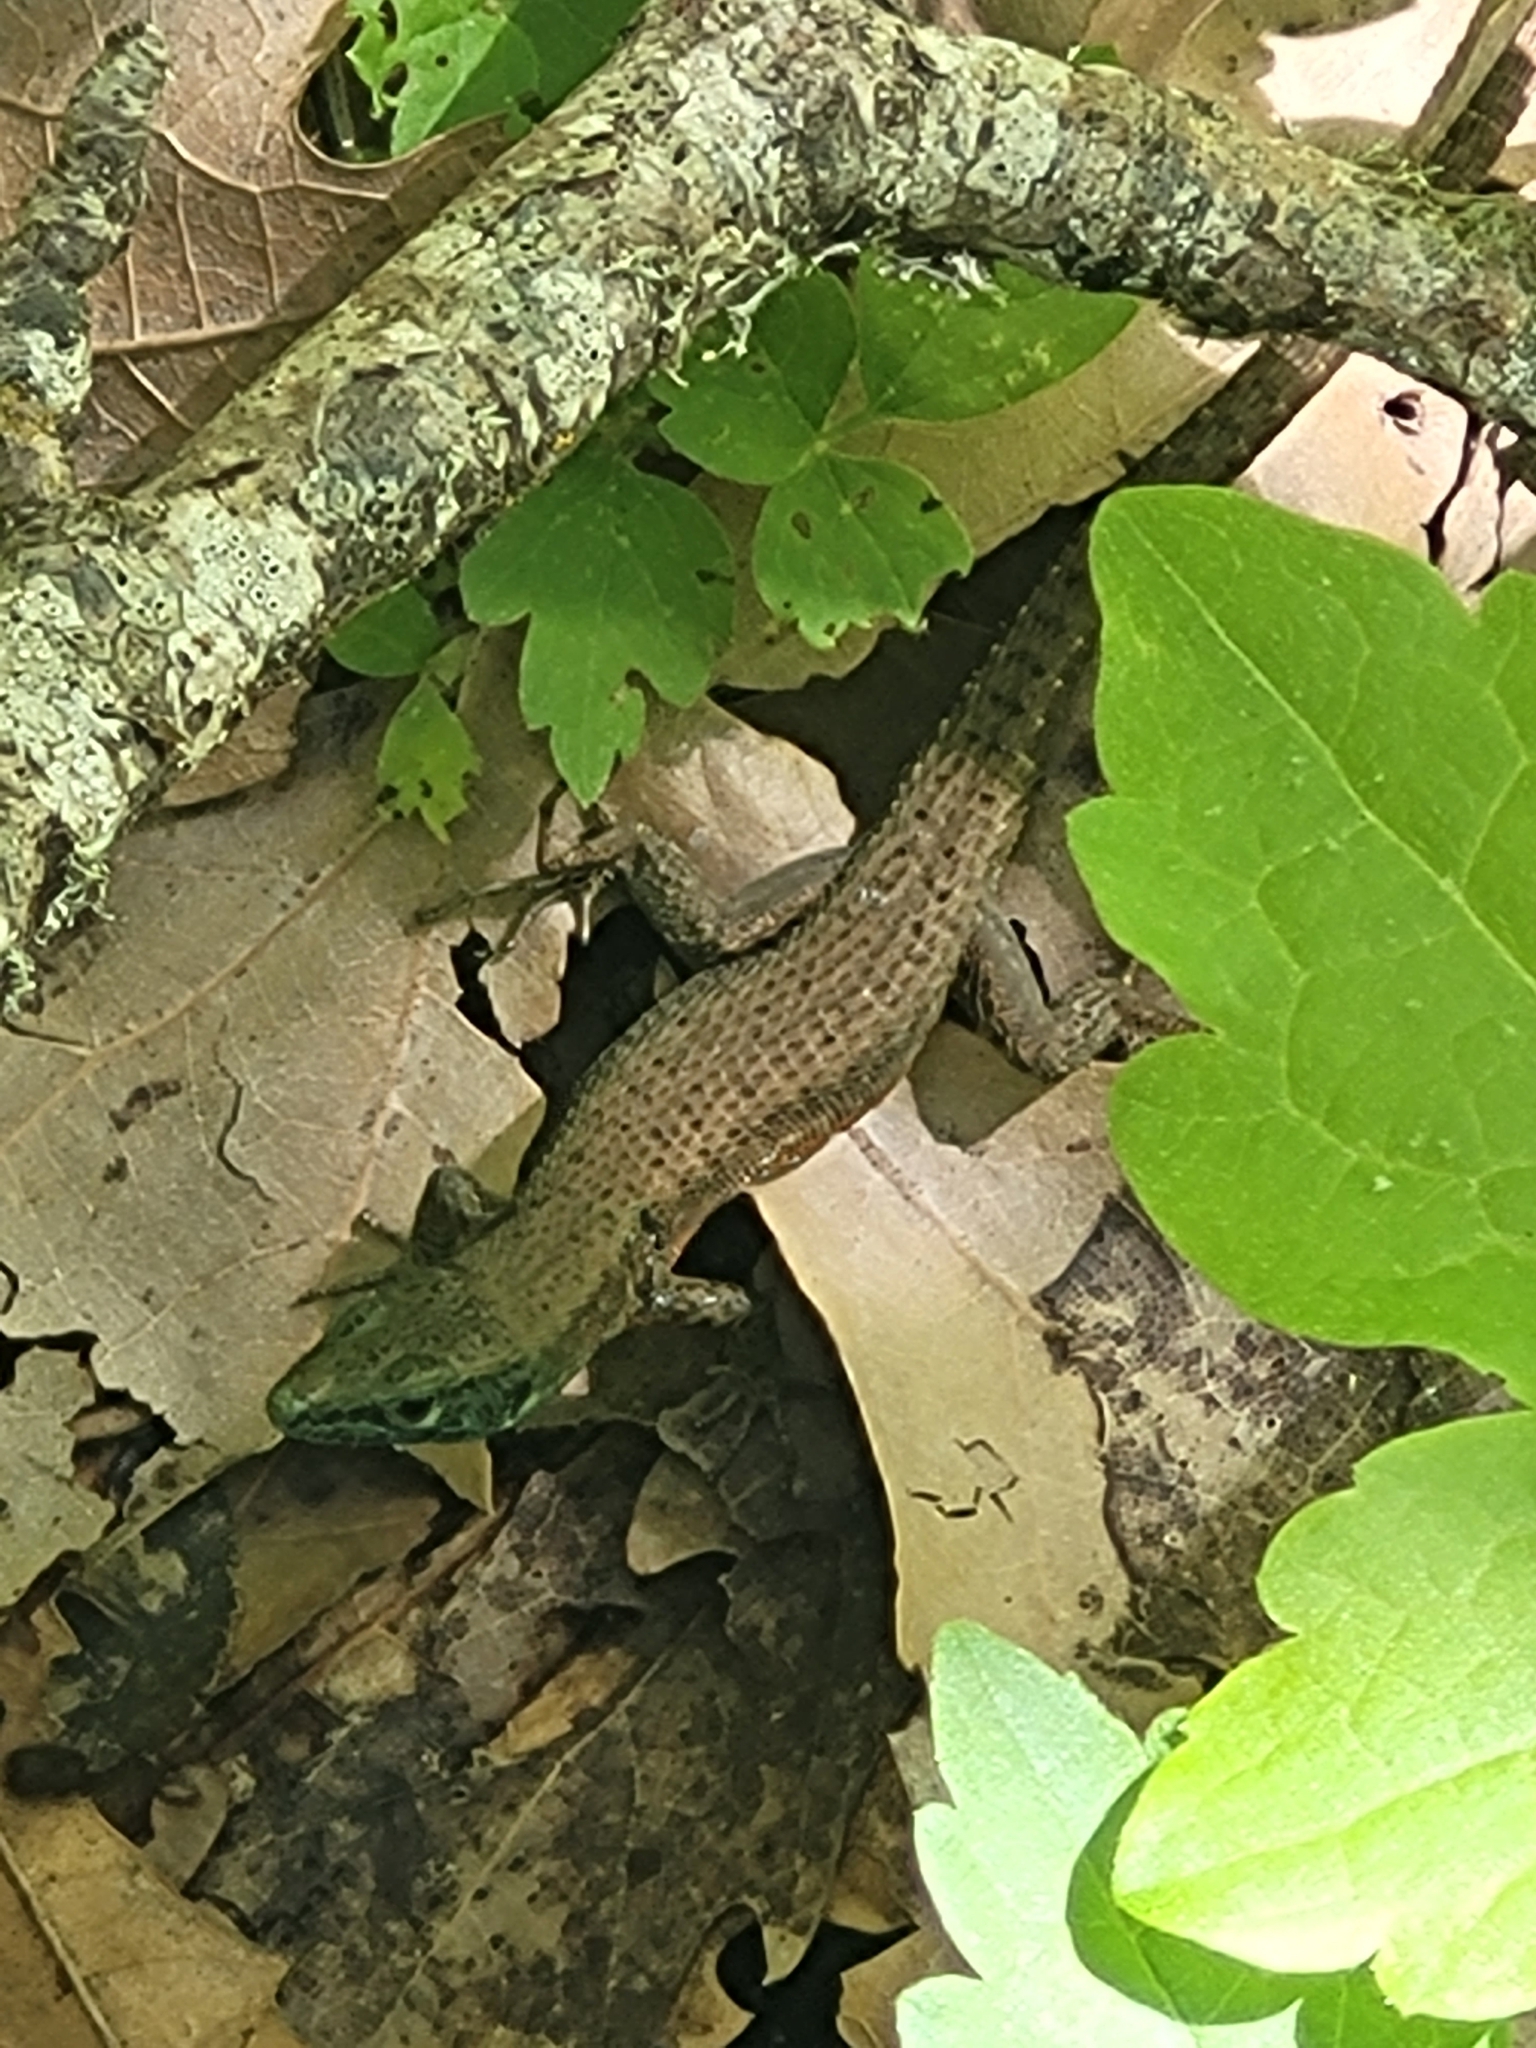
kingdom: Animalia
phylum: Chordata
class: Squamata
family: Lacertidae
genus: Algyroides
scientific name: Algyroides nigropunctatus
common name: Blue-throated keeled lizard
